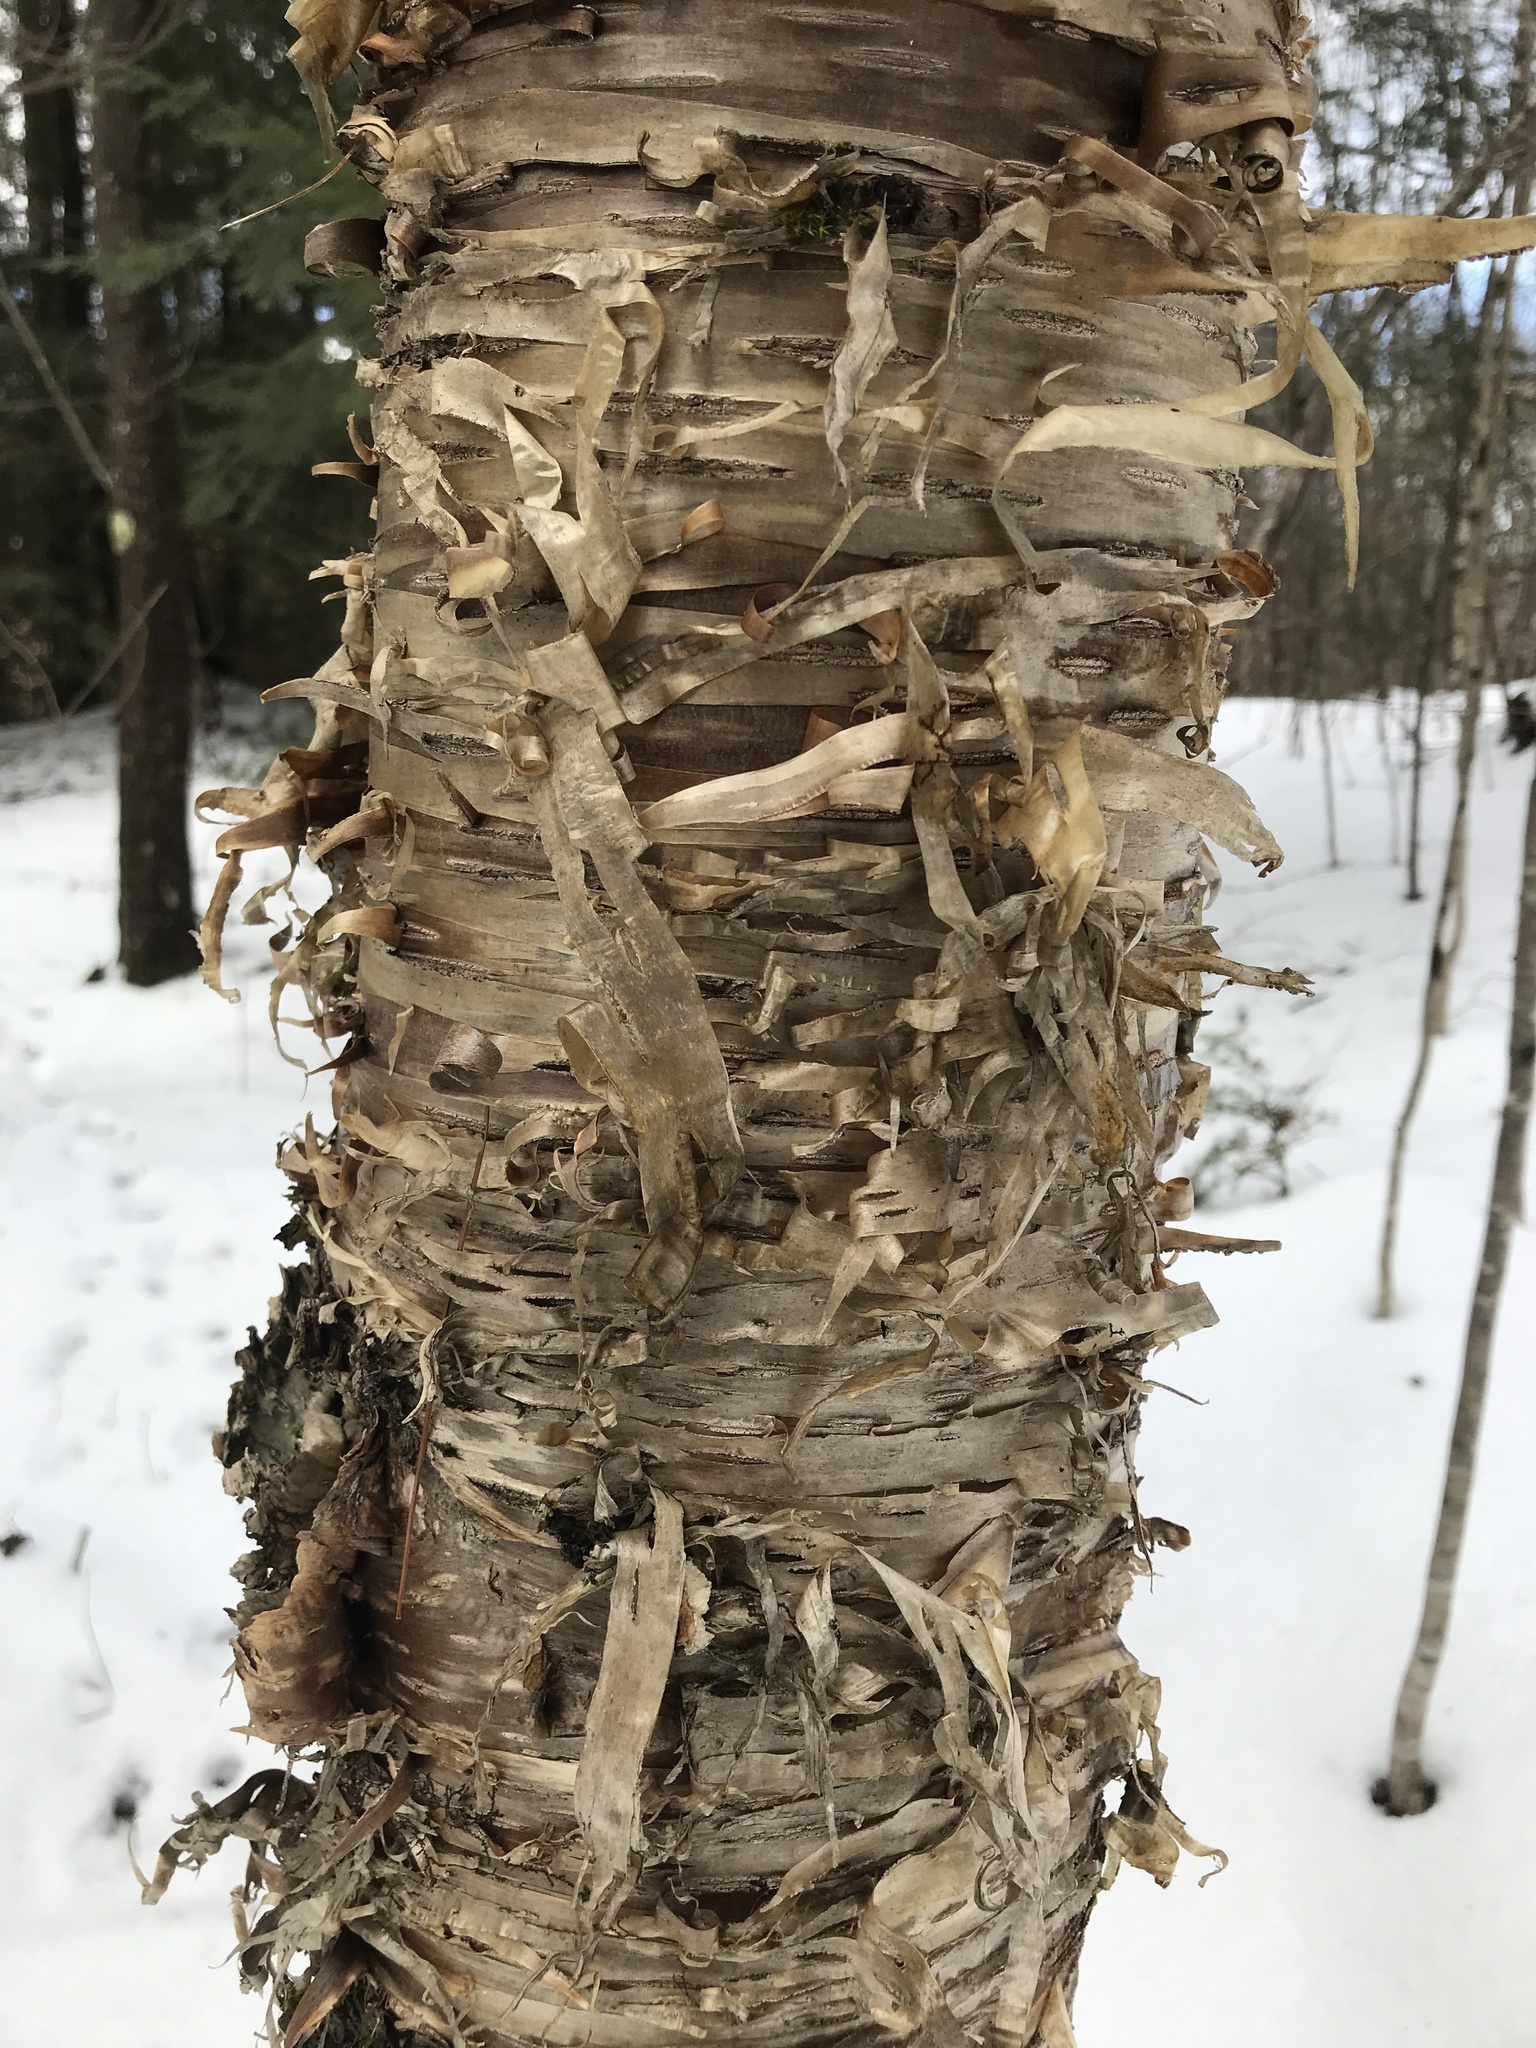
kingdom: Plantae
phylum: Tracheophyta
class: Magnoliopsida
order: Fagales
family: Betulaceae
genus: Betula
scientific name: Betula alleghaniensis
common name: Yellow birch
